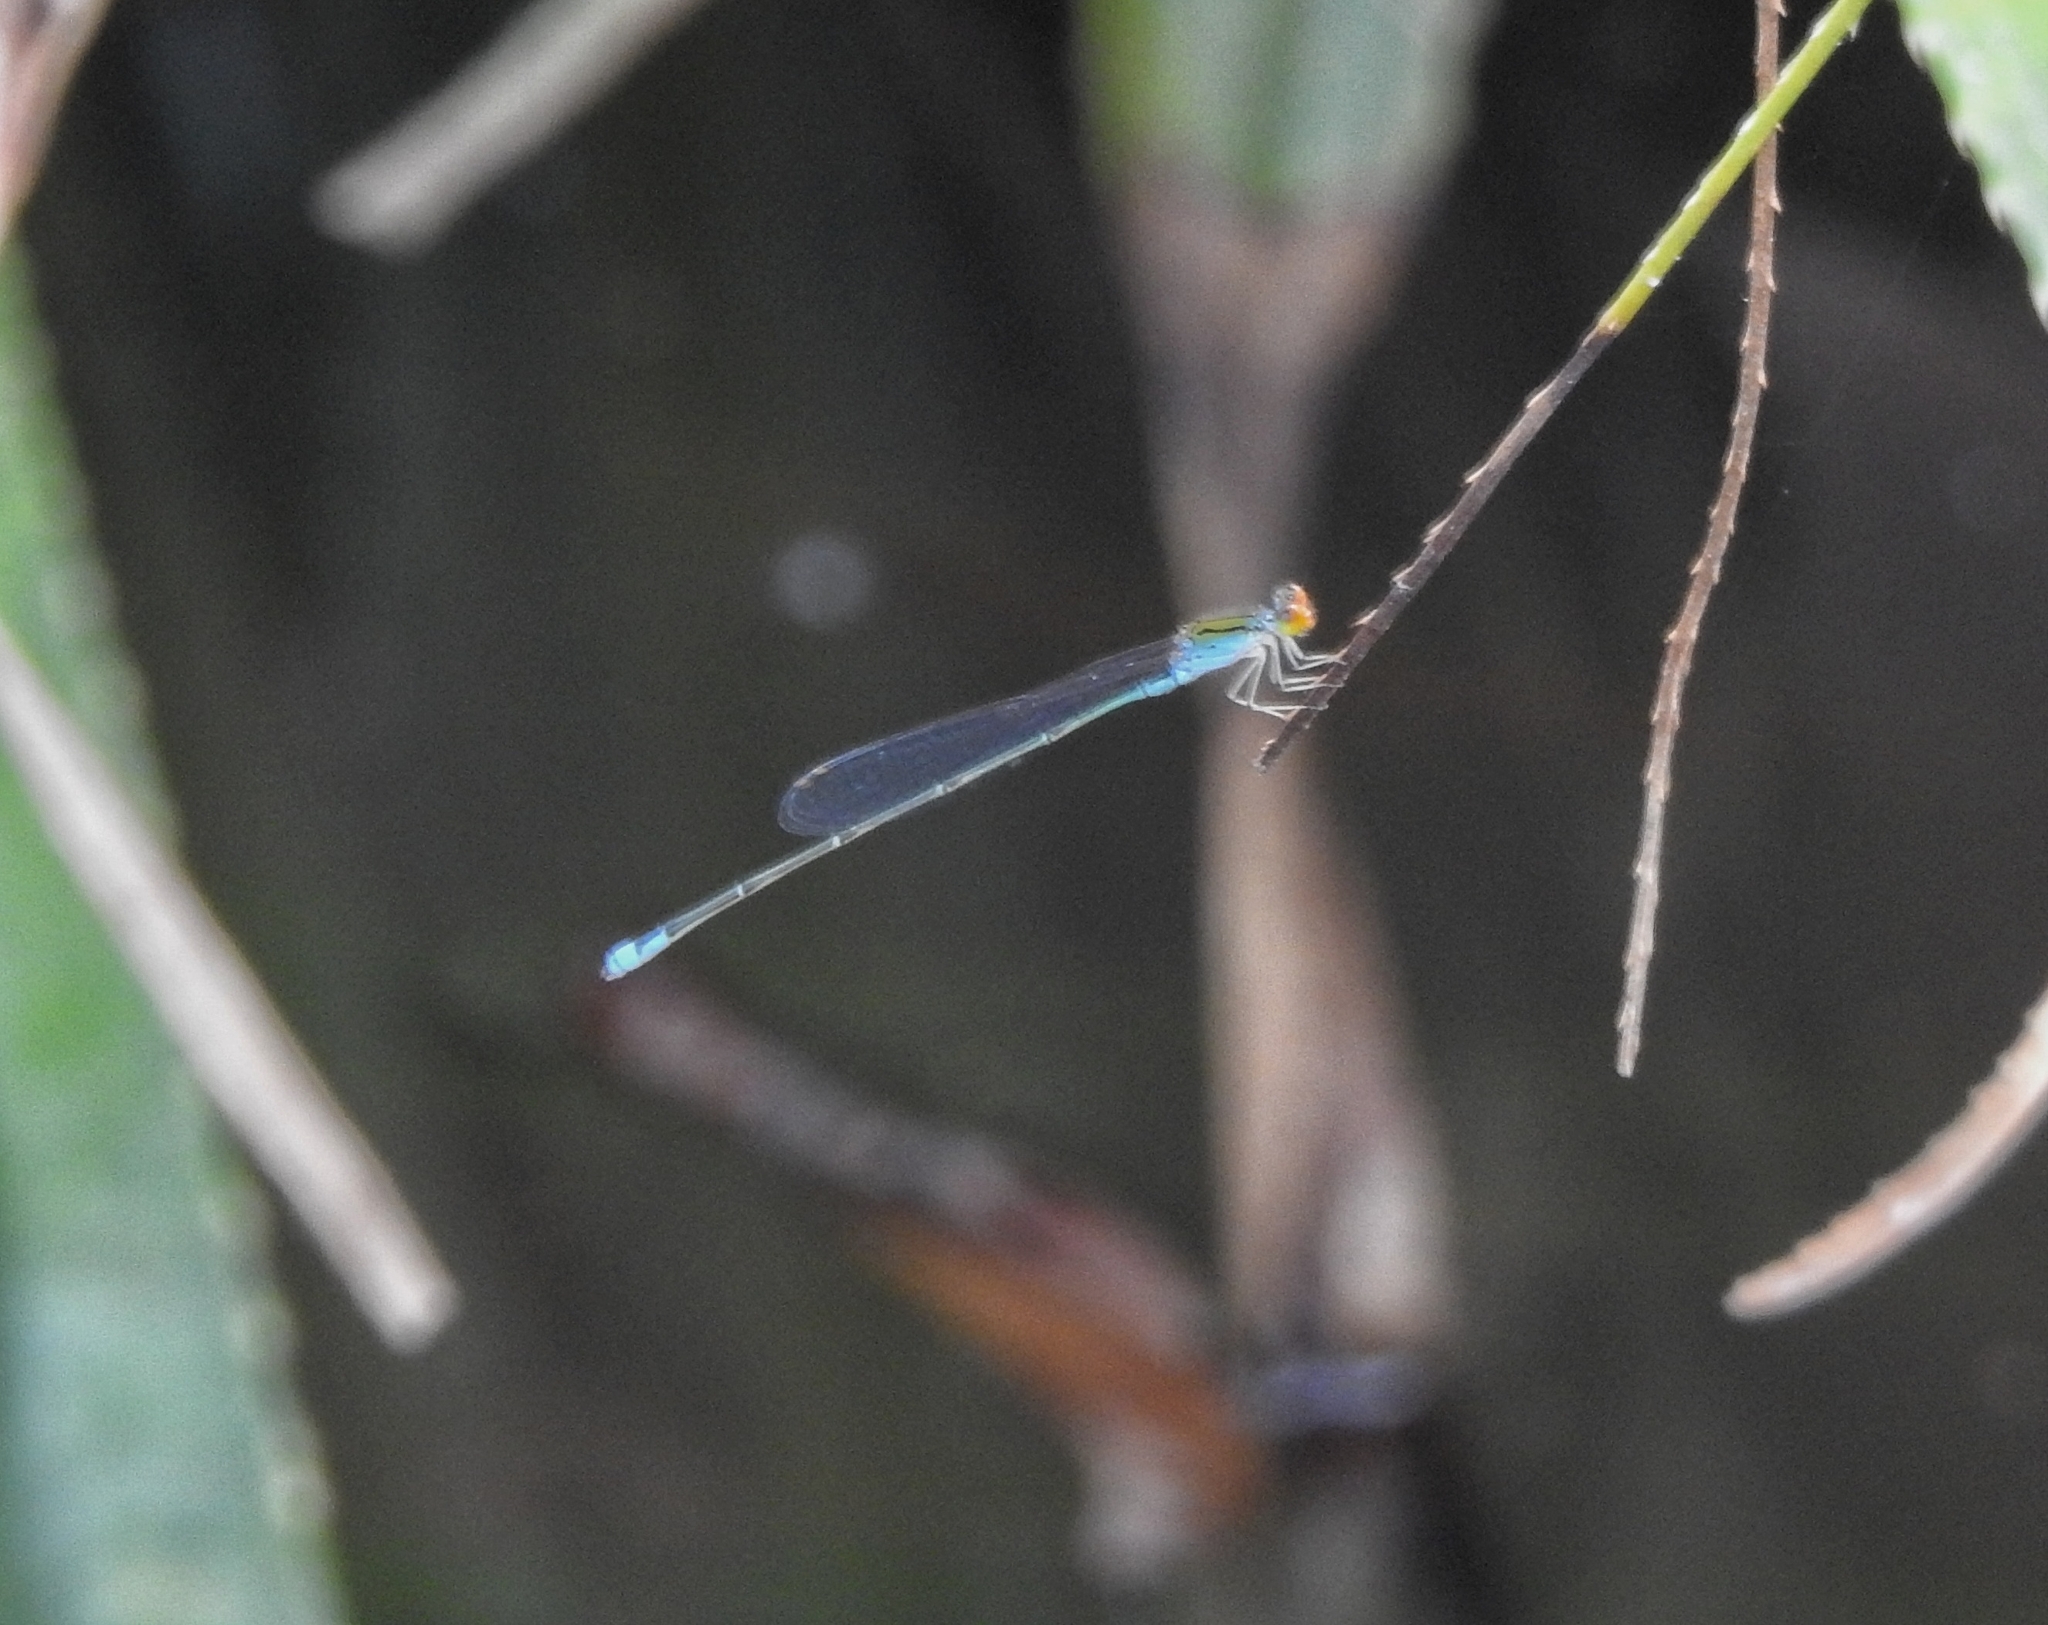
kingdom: Animalia
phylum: Arthropoda
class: Insecta
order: Odonata
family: Coenagrionidae
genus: Pseudagrion
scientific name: Pseudagrion rubriceps
